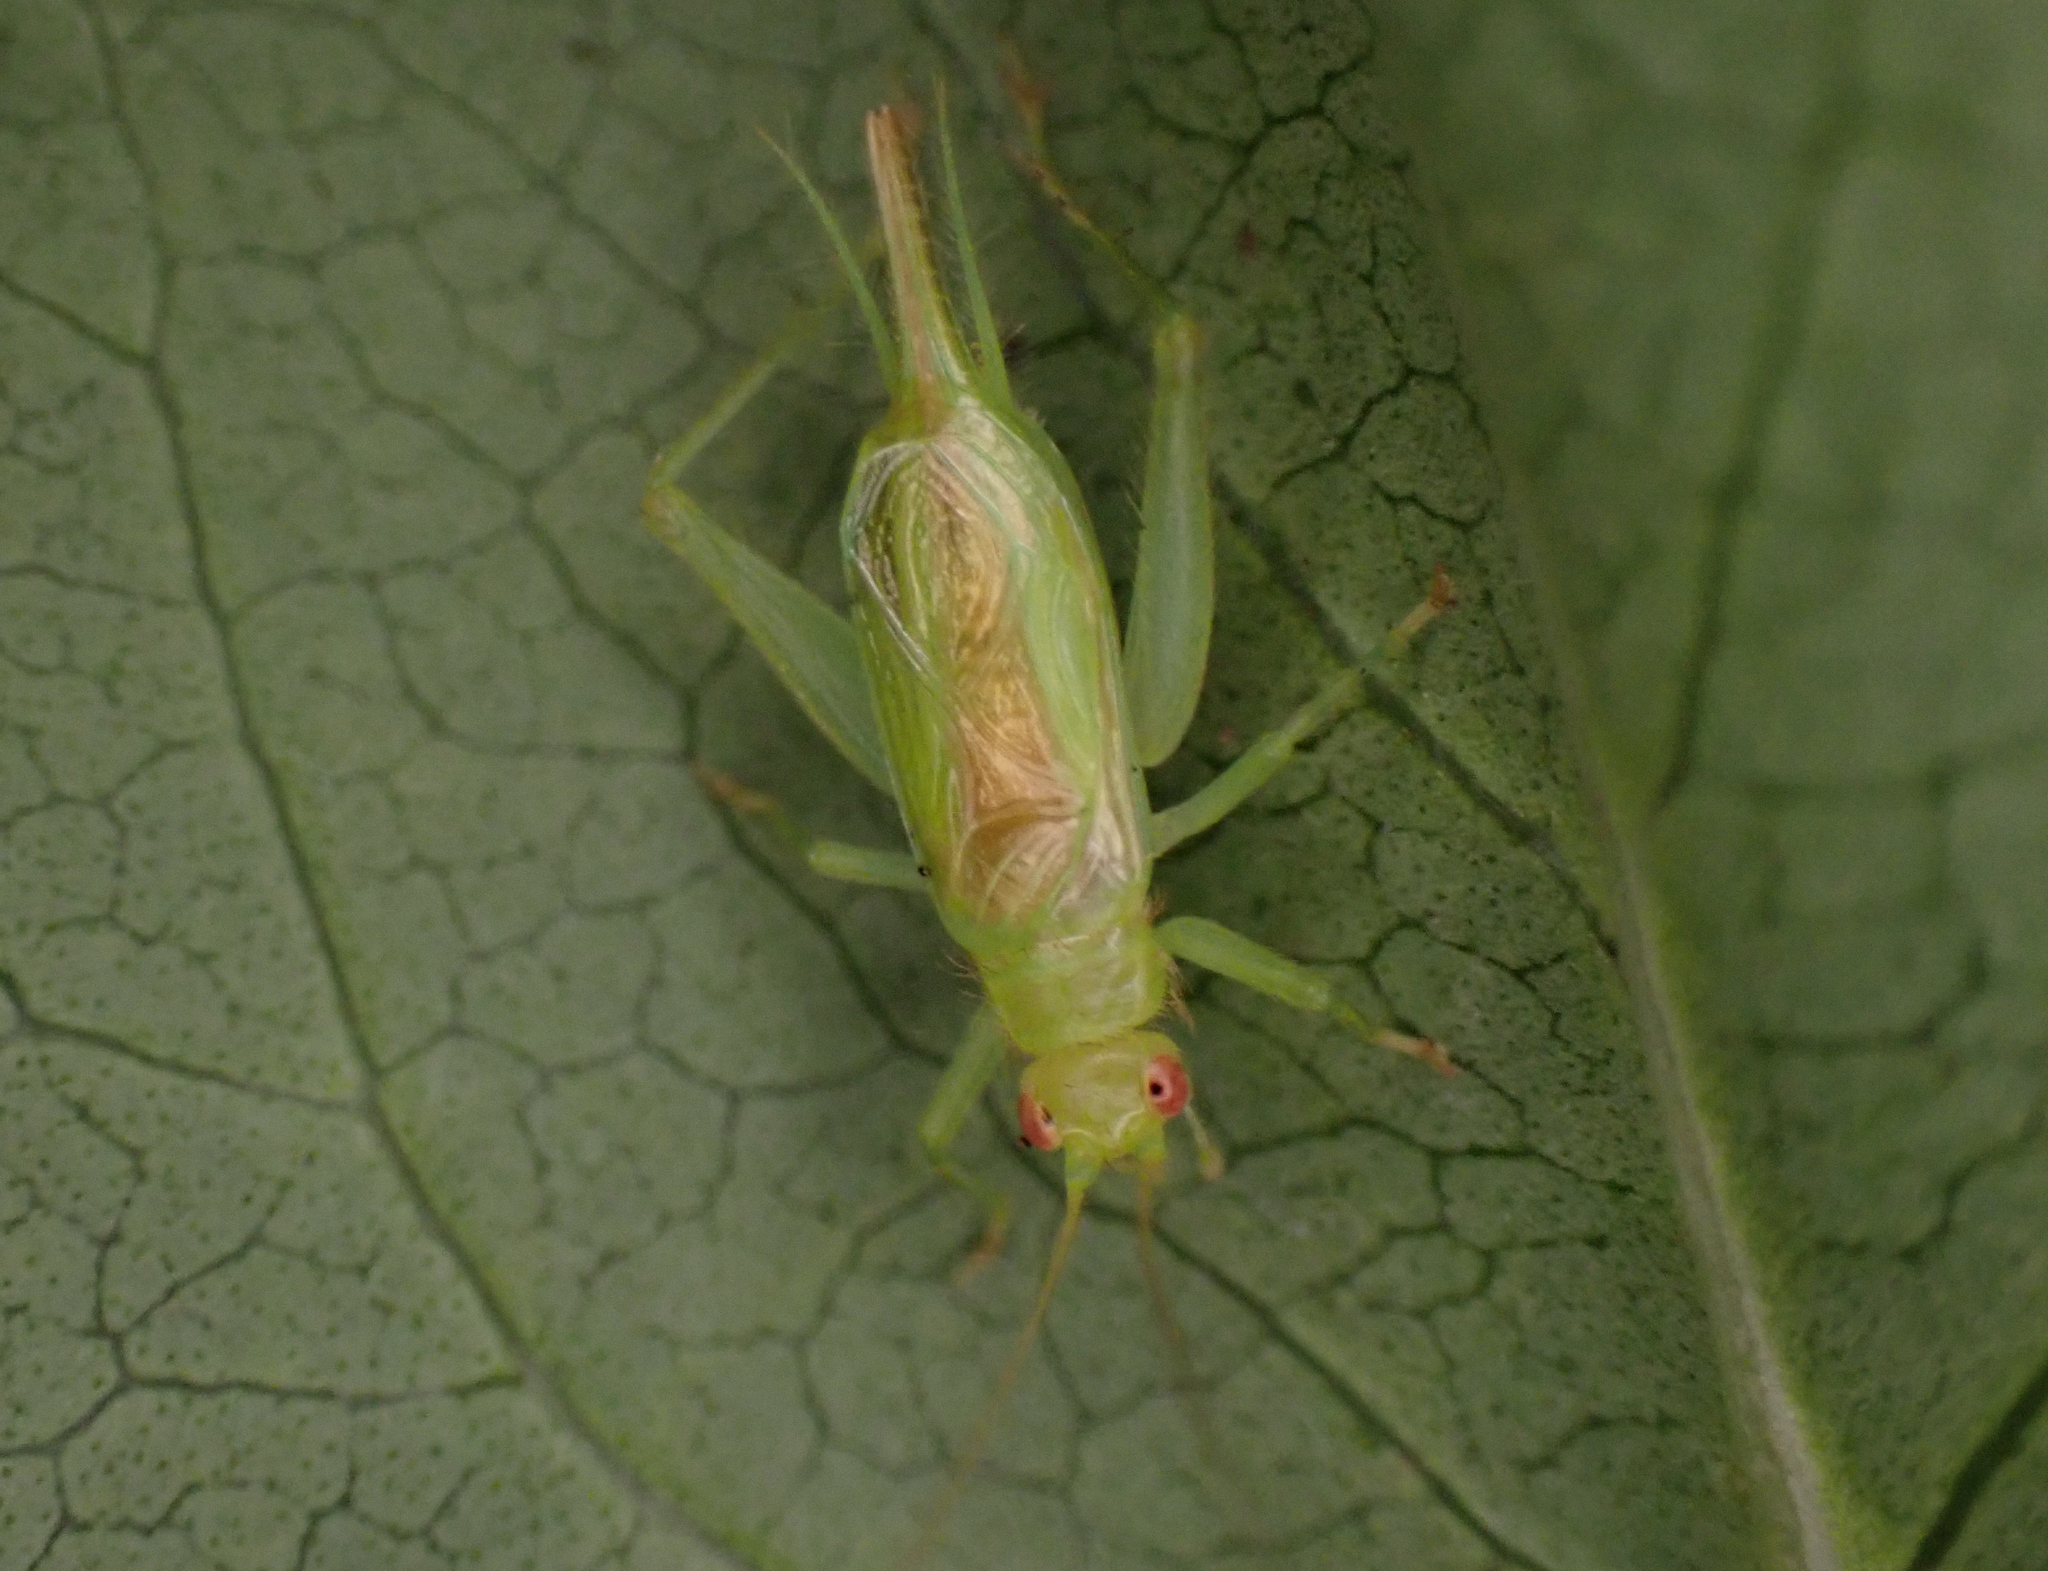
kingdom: Animalia
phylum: Arthropoda
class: Insecta
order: Orthoptera
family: Trigonidiidae
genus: Cyrtoxipha
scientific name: Cyrtoxipha columbiana
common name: Columbian trig
